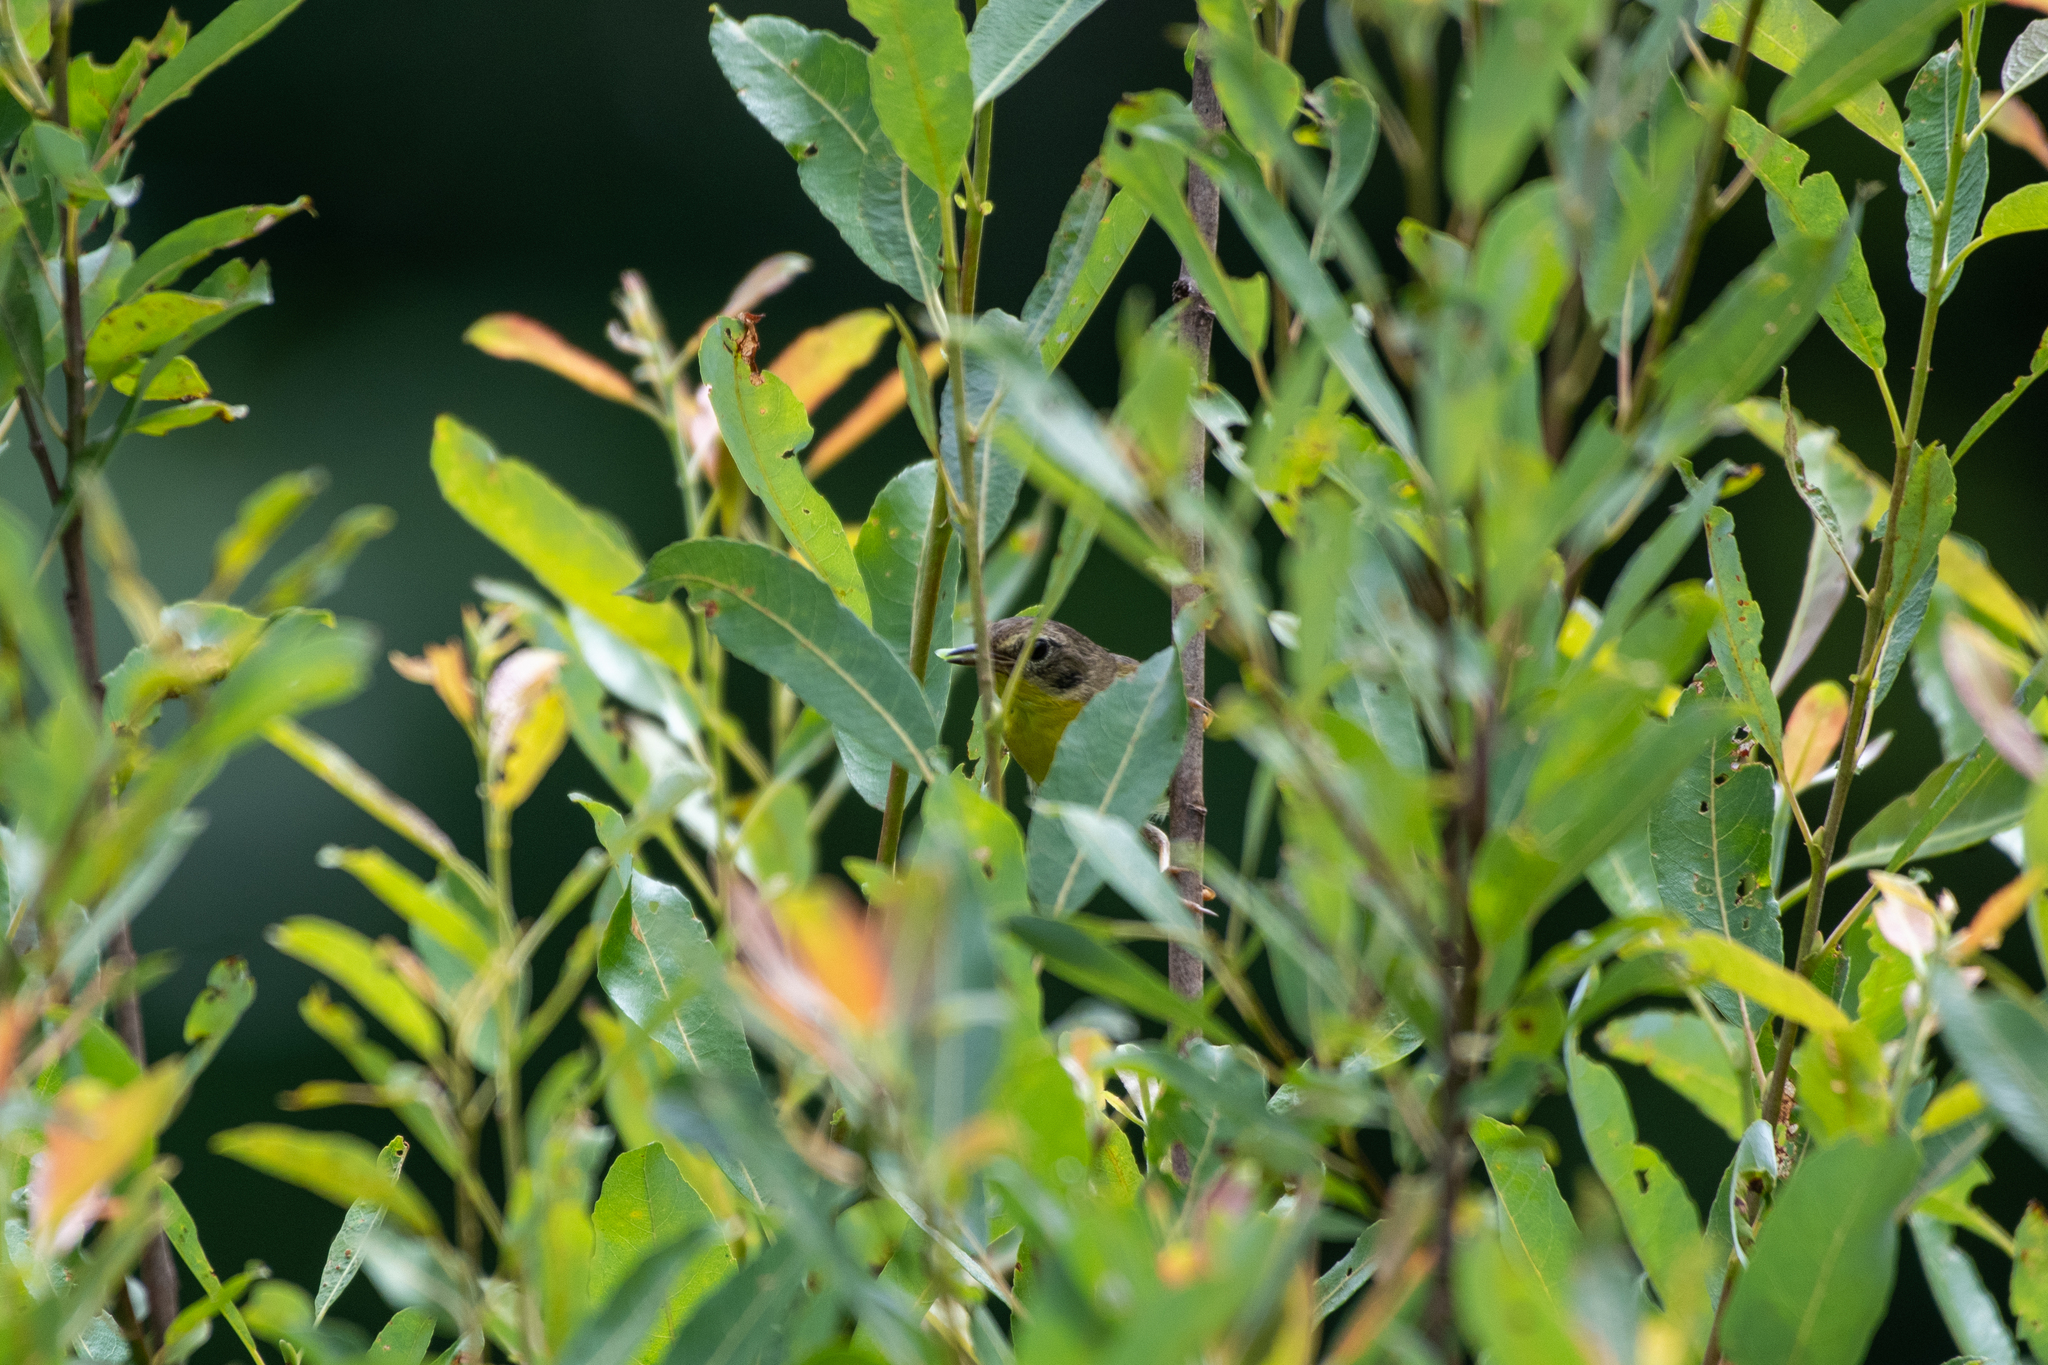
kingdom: Animalia
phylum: Chordata
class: Aves
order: Passeriformes
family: Parulidae
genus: Geothlypis
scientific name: Geothlypis trichas
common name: Common yellowthroat
